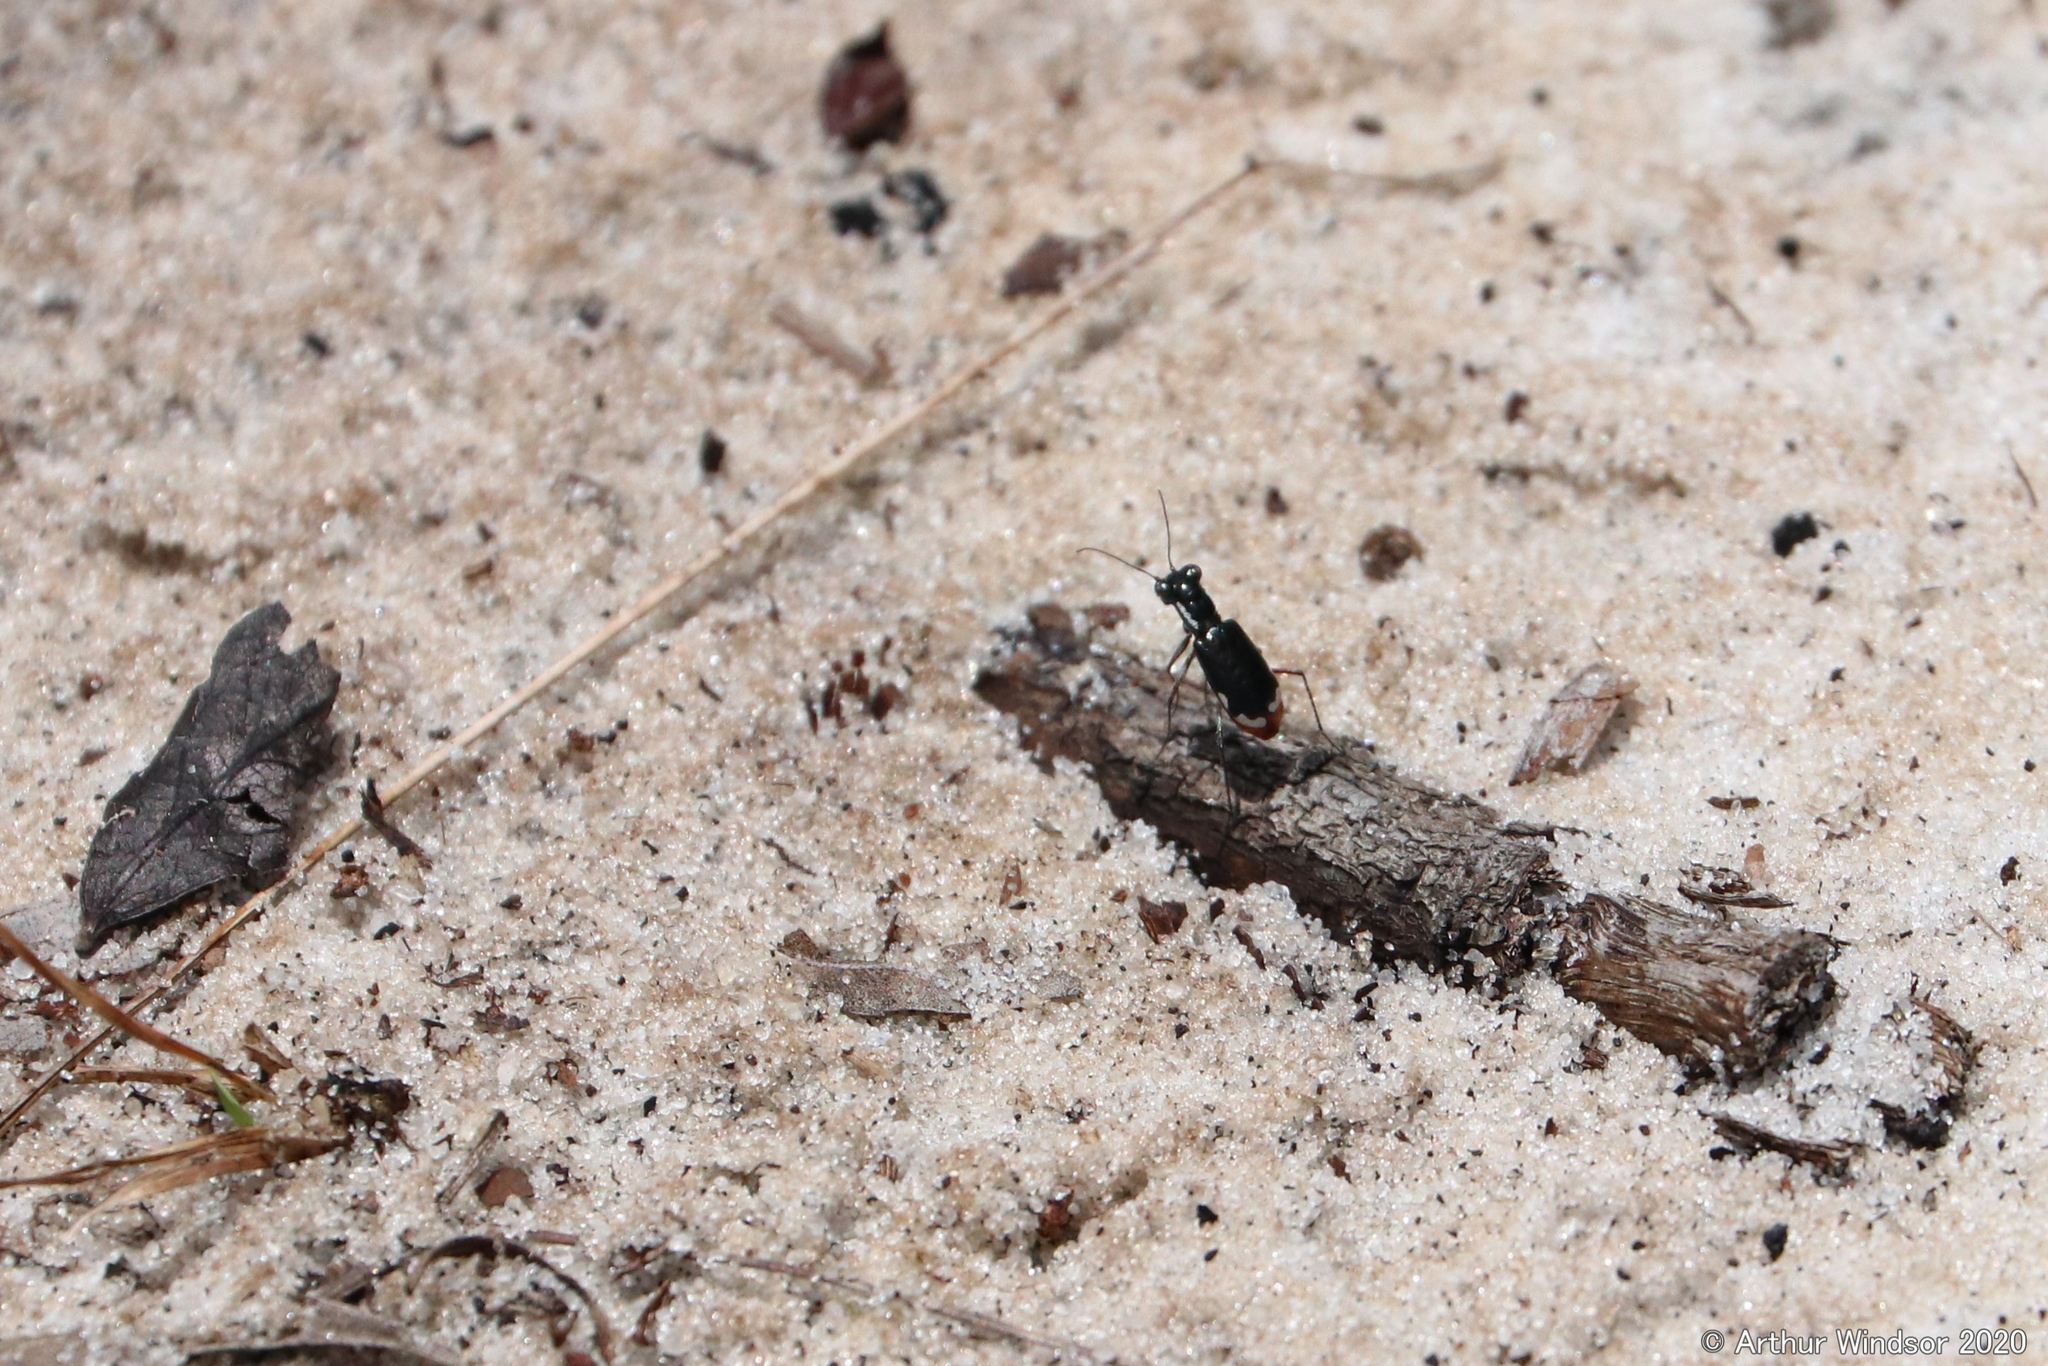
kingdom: Animalia
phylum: Arthropoda
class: Insecta
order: Coleoptera
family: Carabidae
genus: Cicindela
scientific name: Cicindela scabrosa
